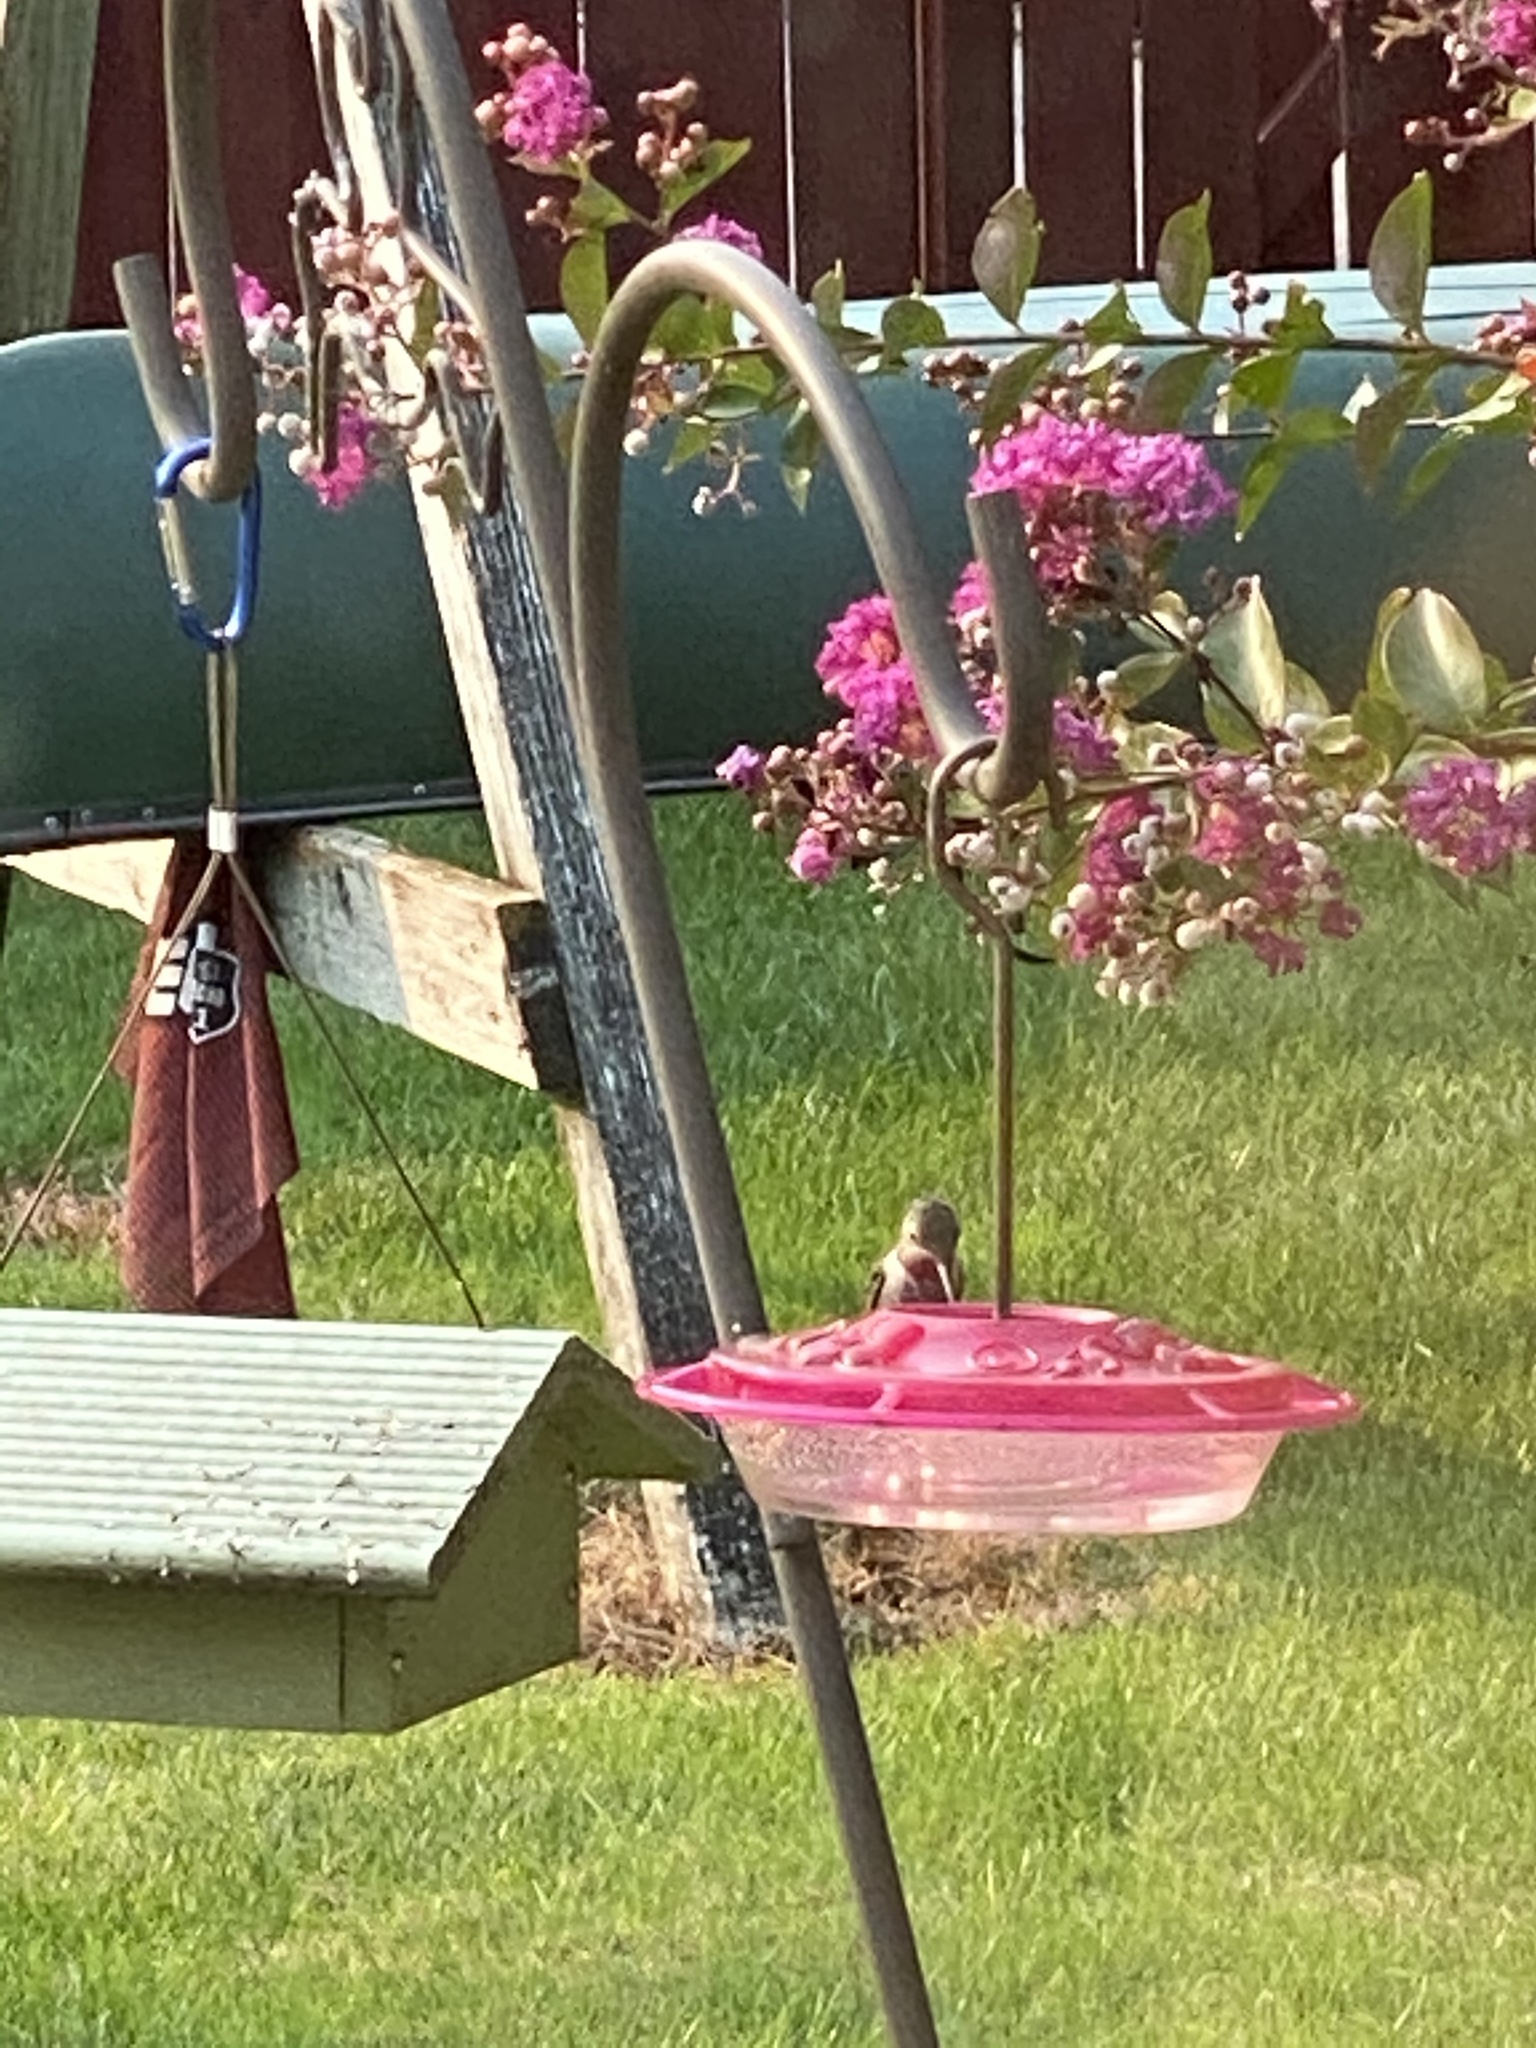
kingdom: Animalia
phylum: Chordata
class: Aves
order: Apodiformes
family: Trochilidae
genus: Calypte
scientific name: Calypte anna
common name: Anna's hummingbird
